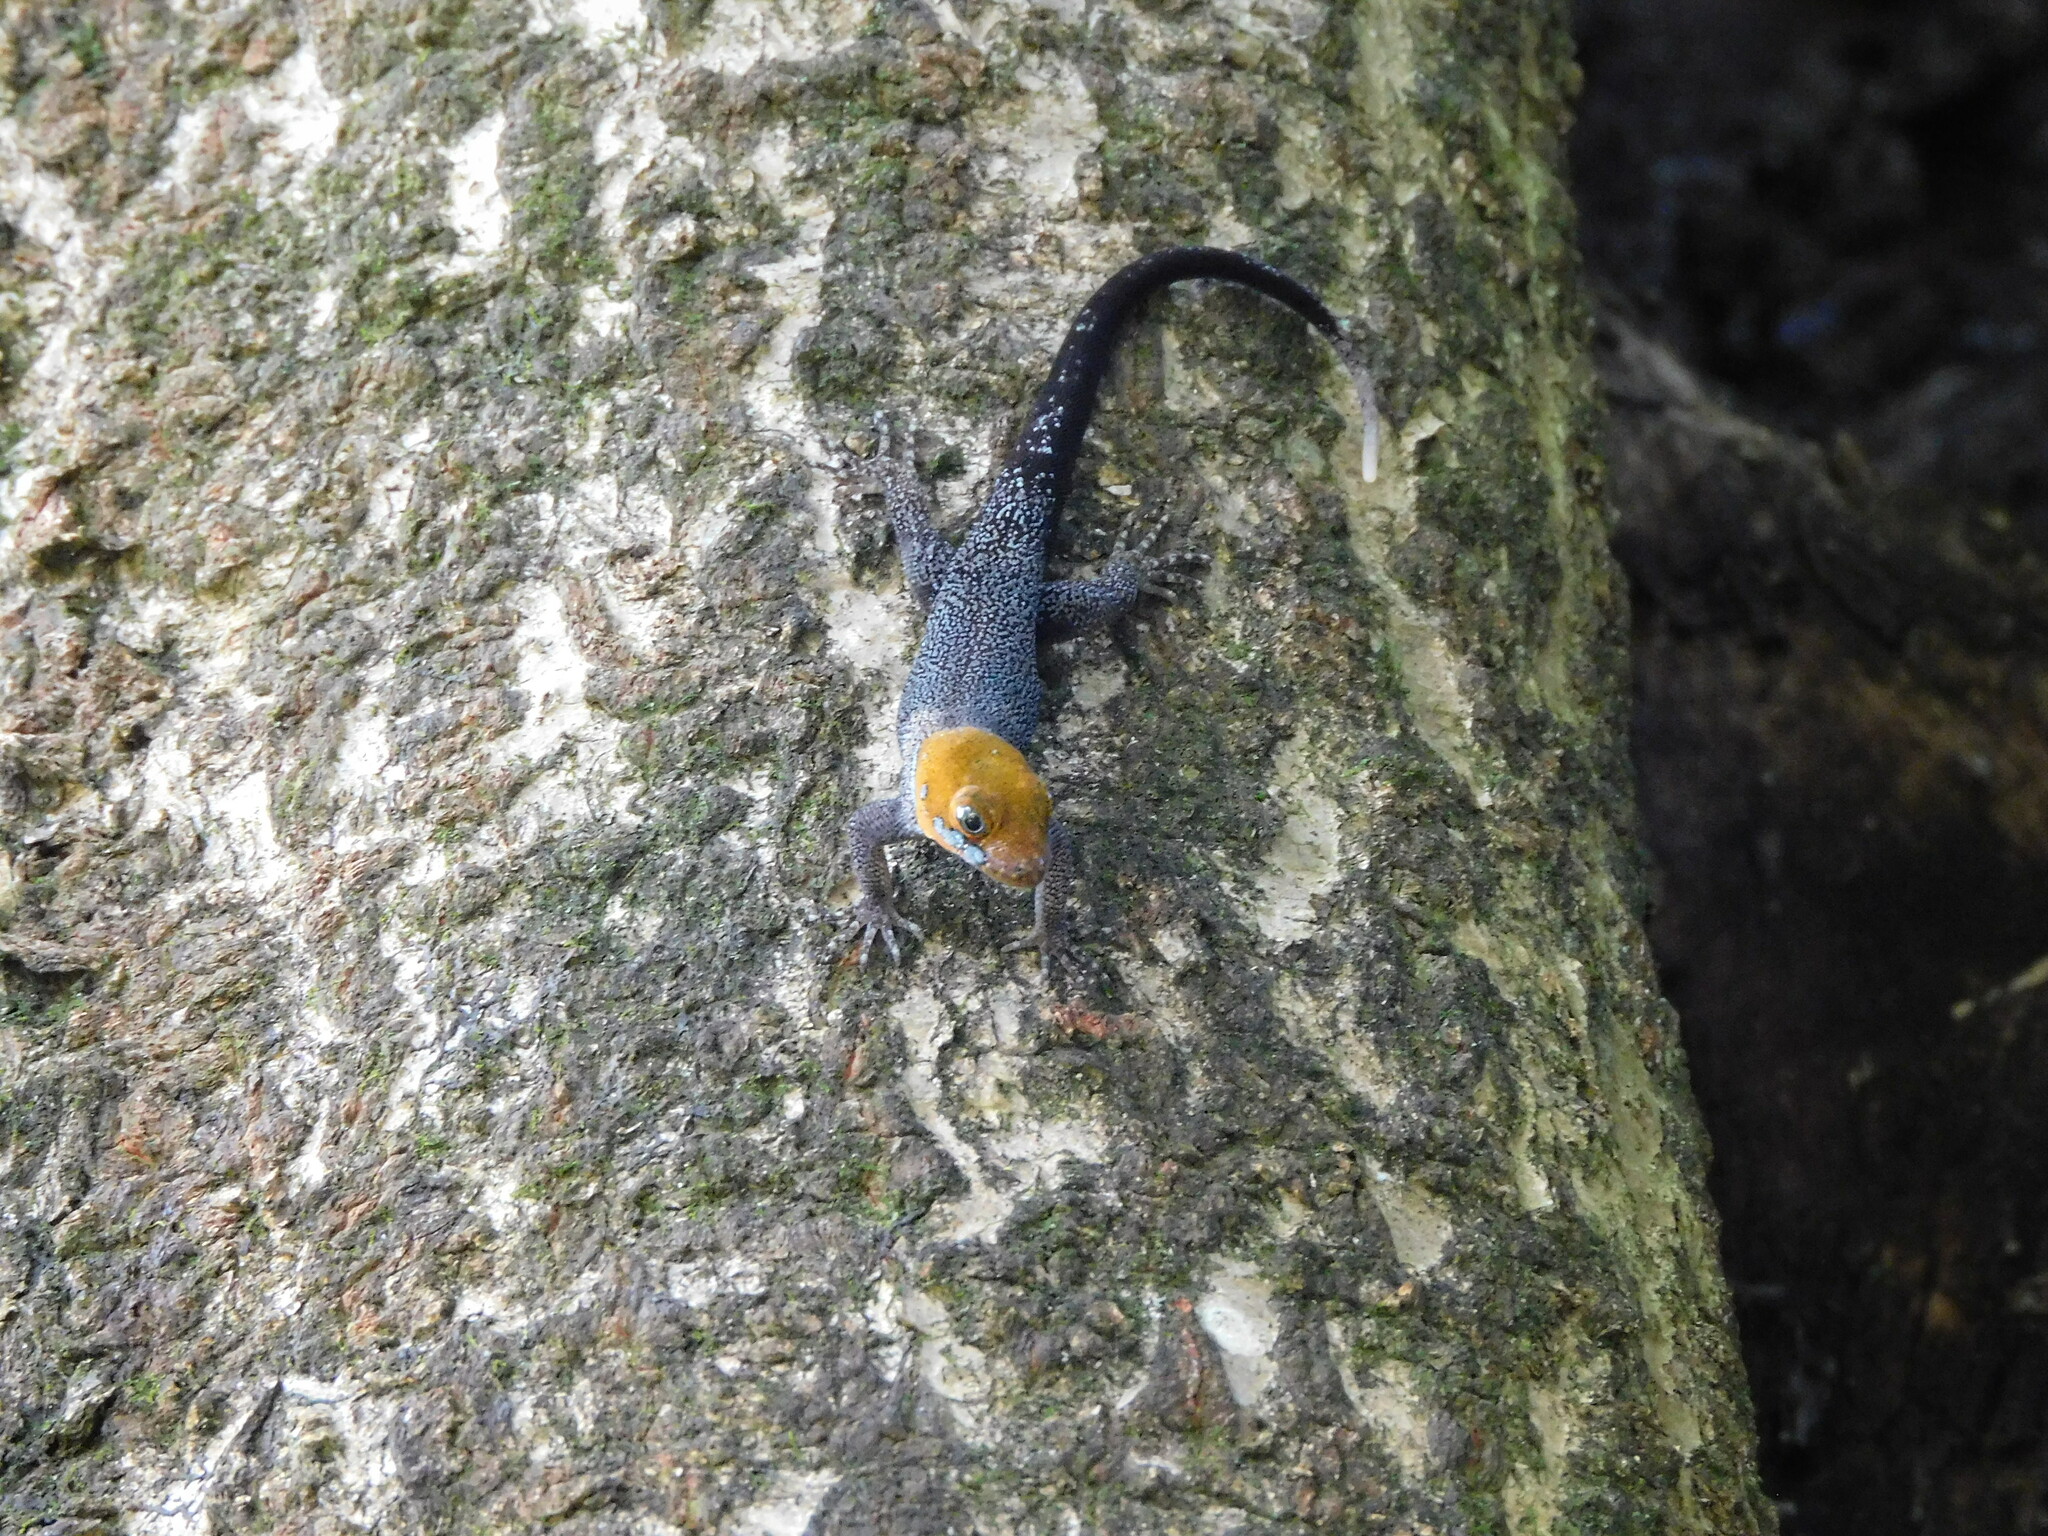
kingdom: Animalia
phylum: Chordata
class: Squamata
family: Sphaerodactylidae
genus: Gonatodes
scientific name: Gonatodes albogularis
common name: Yellow-headed gecko
